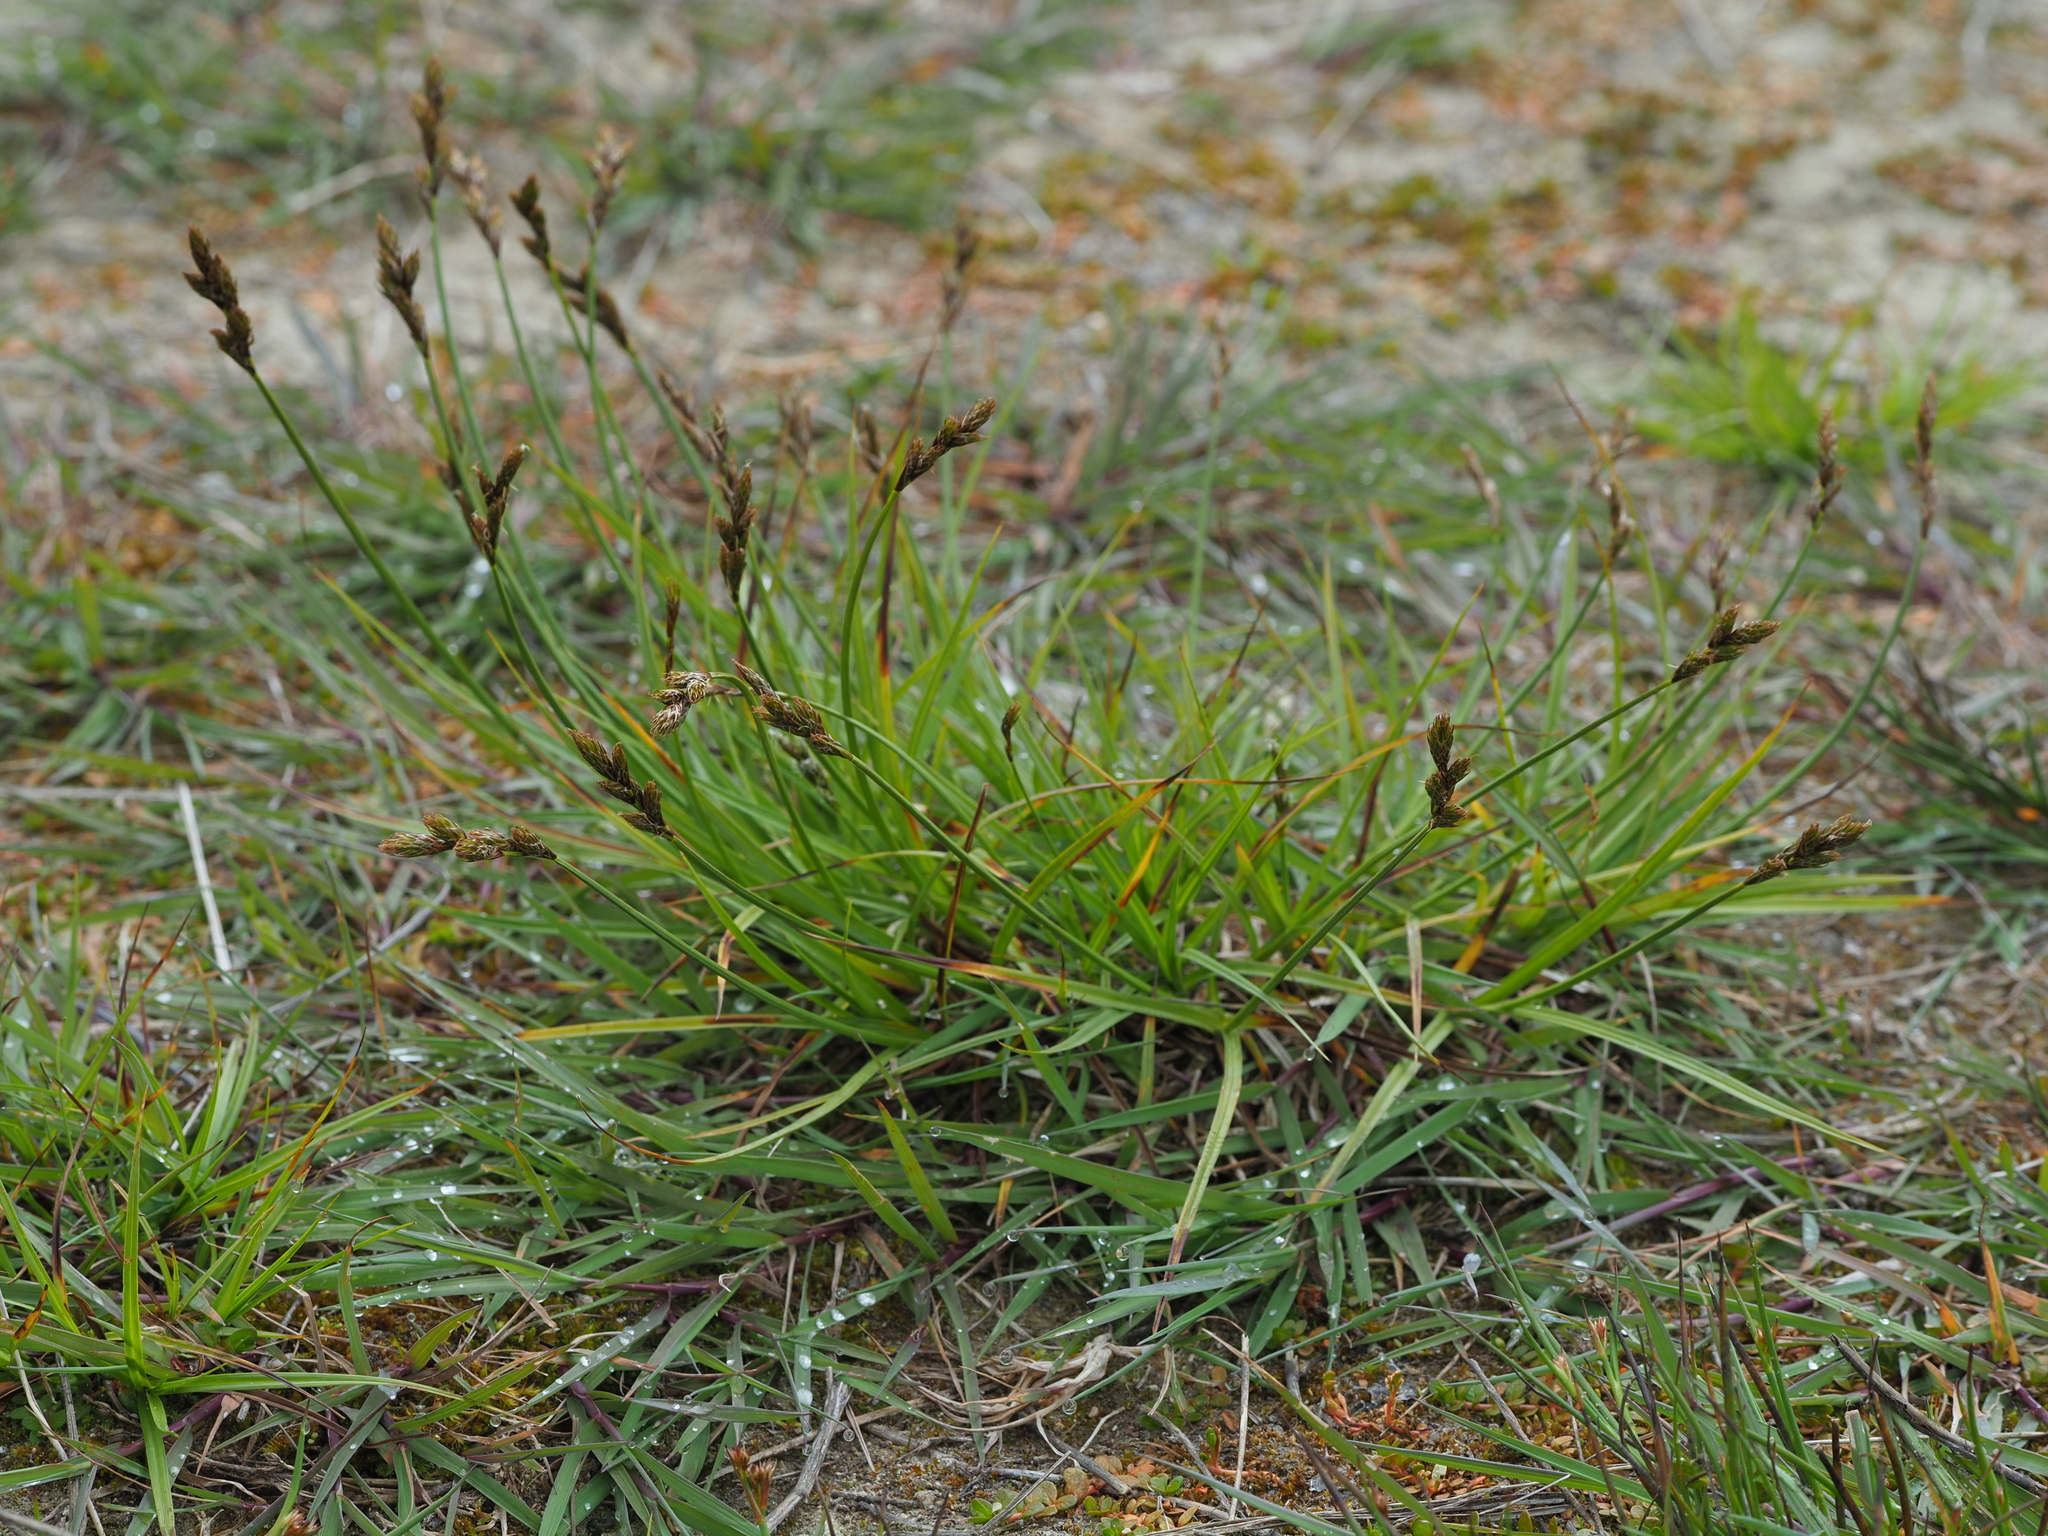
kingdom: Plantae
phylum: Tracheophyta
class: Liliopsida
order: Poales
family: Cyperaceae
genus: Carex
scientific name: Carex leporina
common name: Oval sedge
